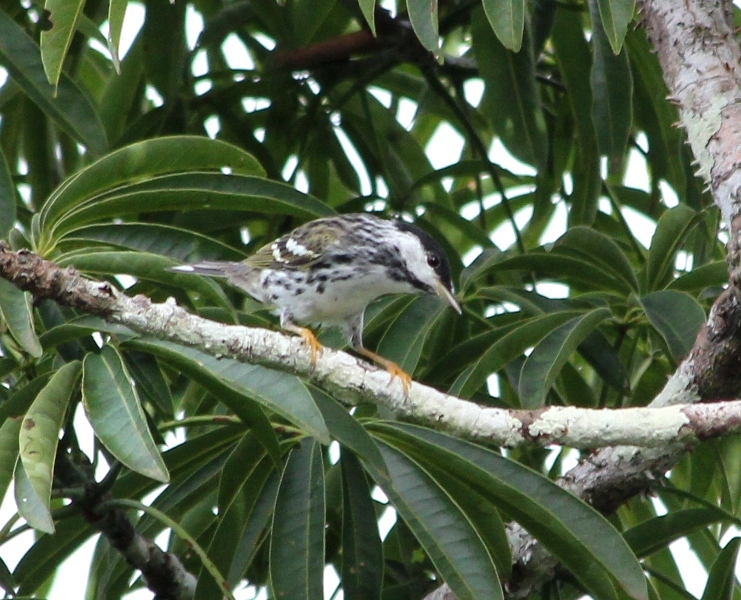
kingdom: Animalia
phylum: Chordata
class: Aves
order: Passeriformes
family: Parulidae
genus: Setophaga
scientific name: Setophaga striata
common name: Blackpoll warbler
